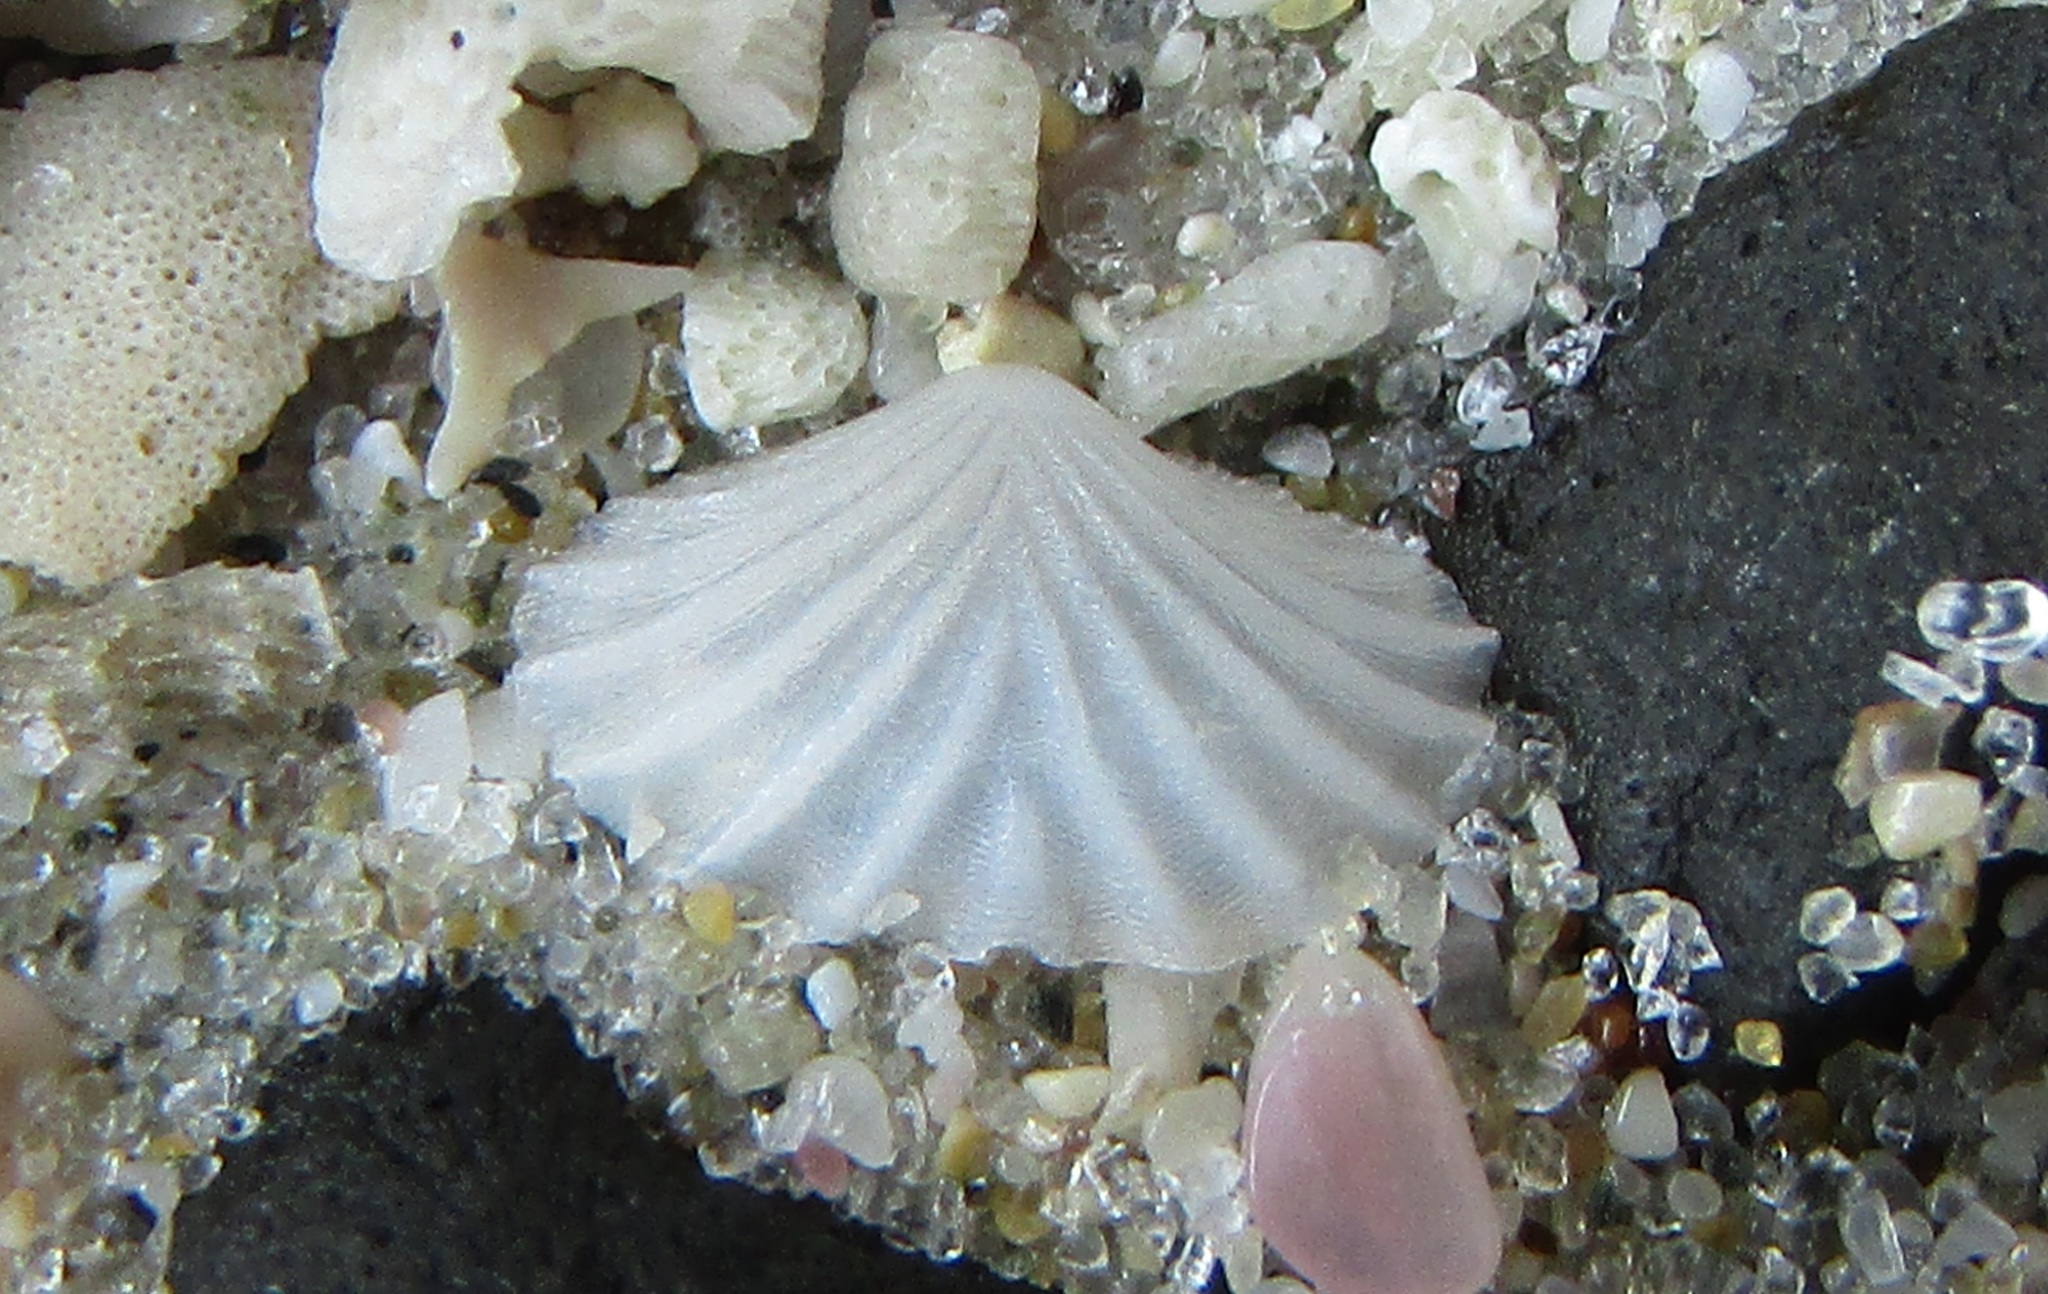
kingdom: Animalia
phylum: Mollusca
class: Bivalvia
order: Galeommatida
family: Lasaeidae
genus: Myllita
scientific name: Myllita stowei
